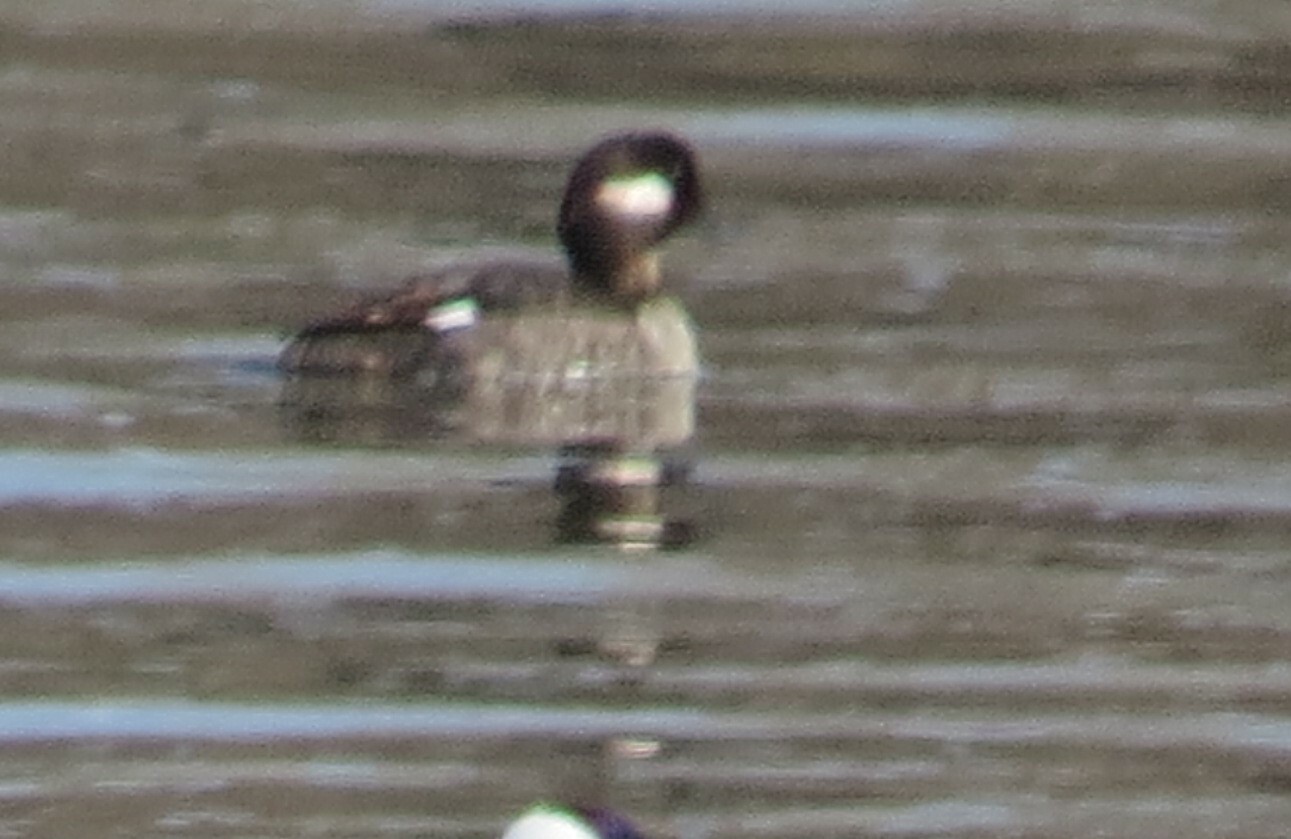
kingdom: Animalia
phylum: Chordata
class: Aves
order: Anseriformes
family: Anatidae
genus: Bucephala
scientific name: Bucephala albeola
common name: Bufflehead
